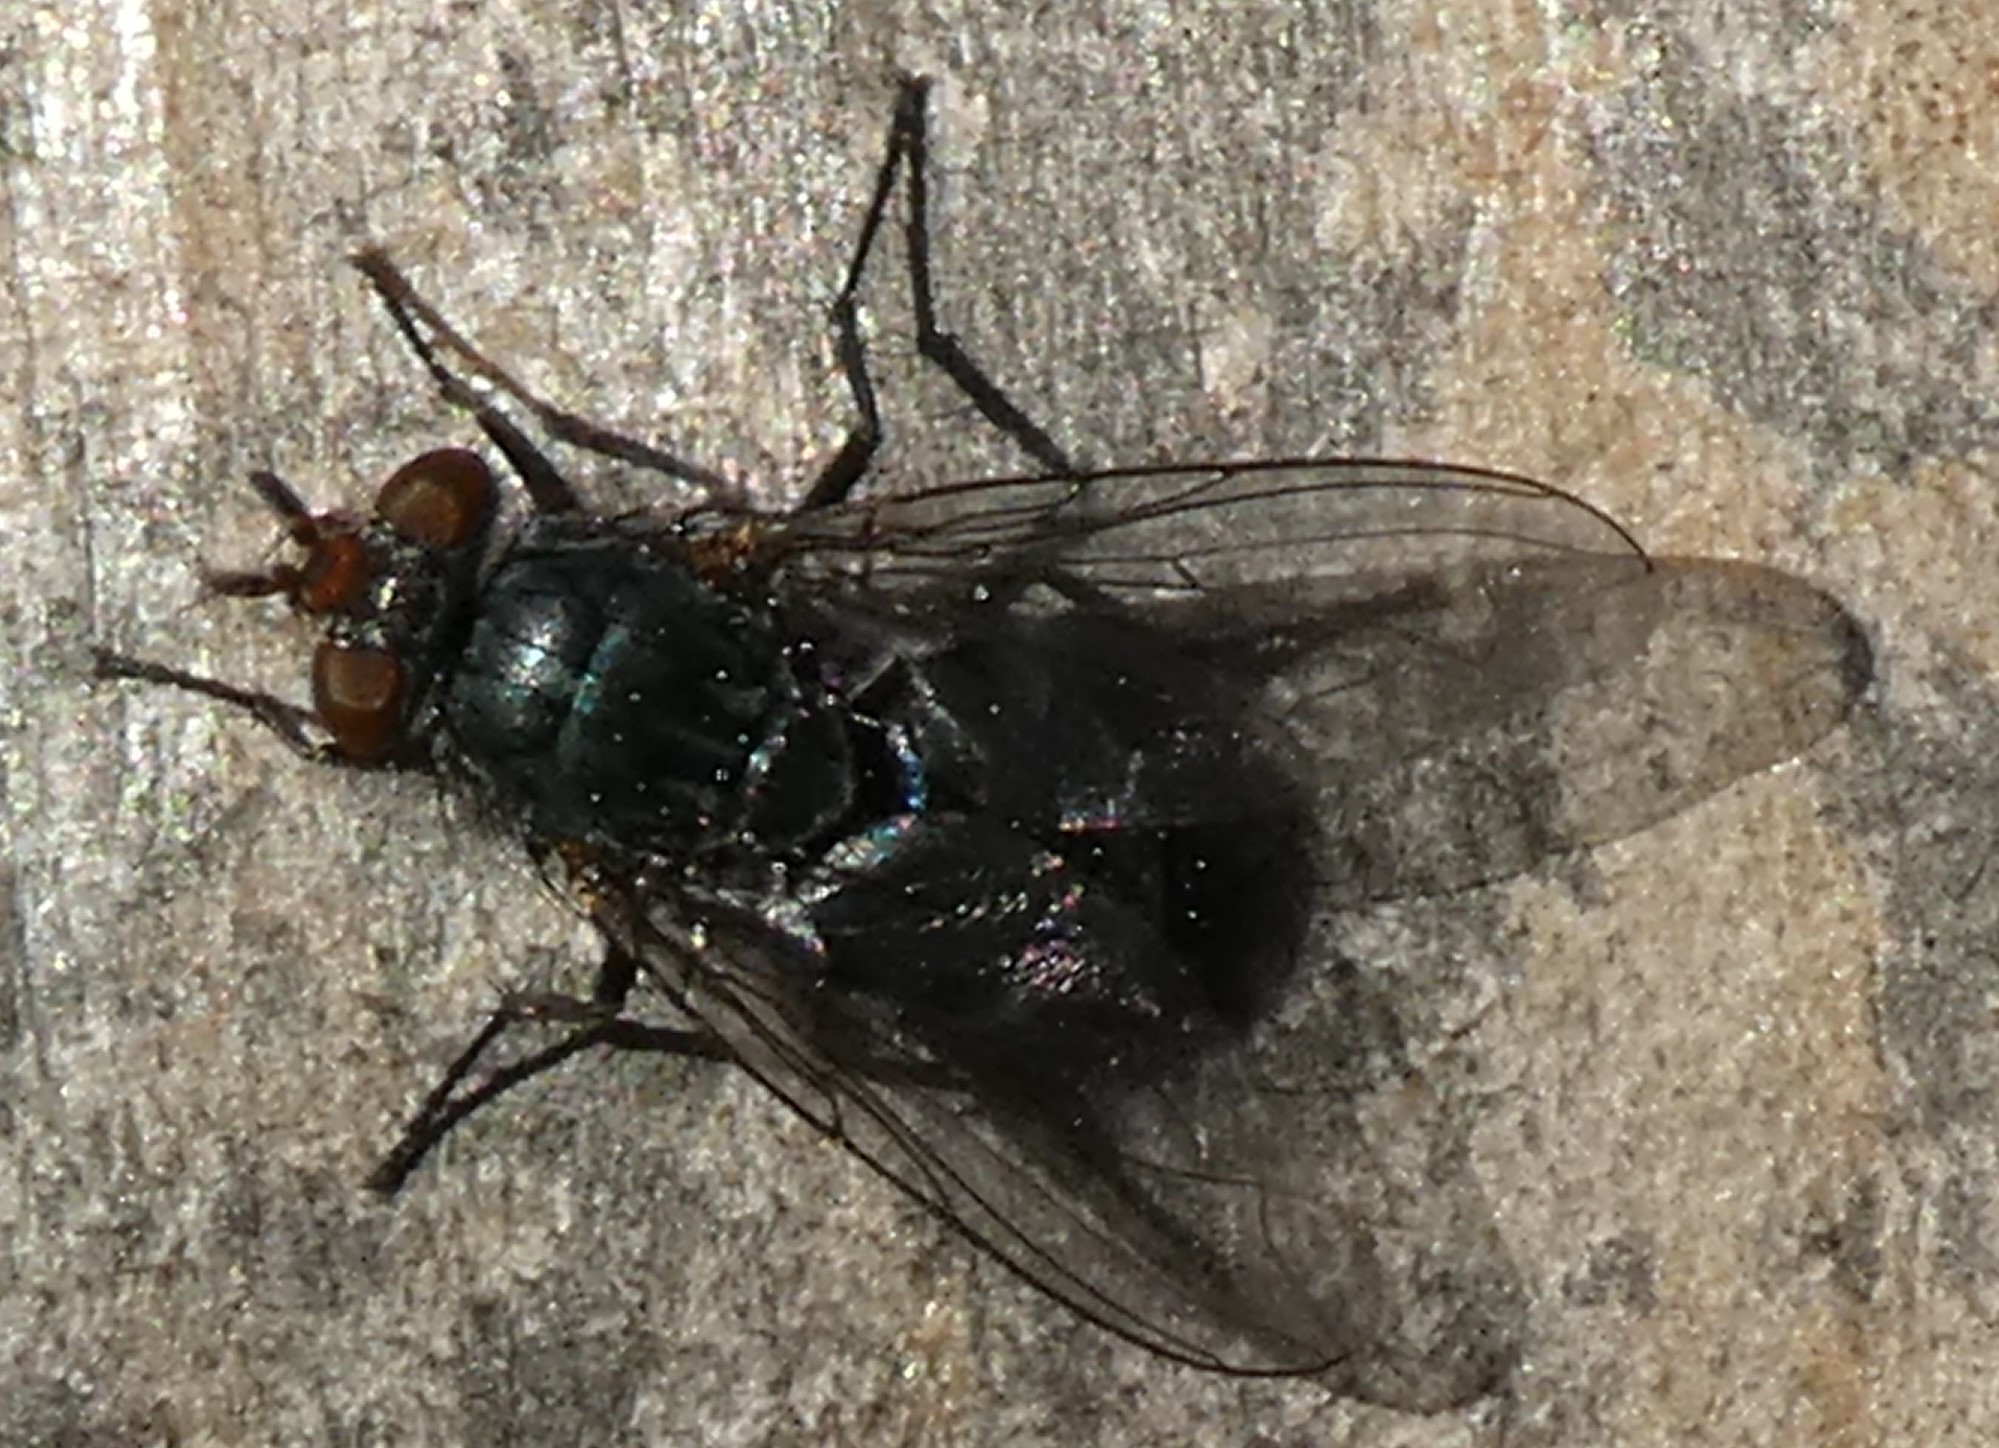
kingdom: Animalia
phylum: Arthropoda
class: Insecta
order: Diptera
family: Calliphoridae
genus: Calliphora
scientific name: Calliphora vicina
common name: Common blow flie
